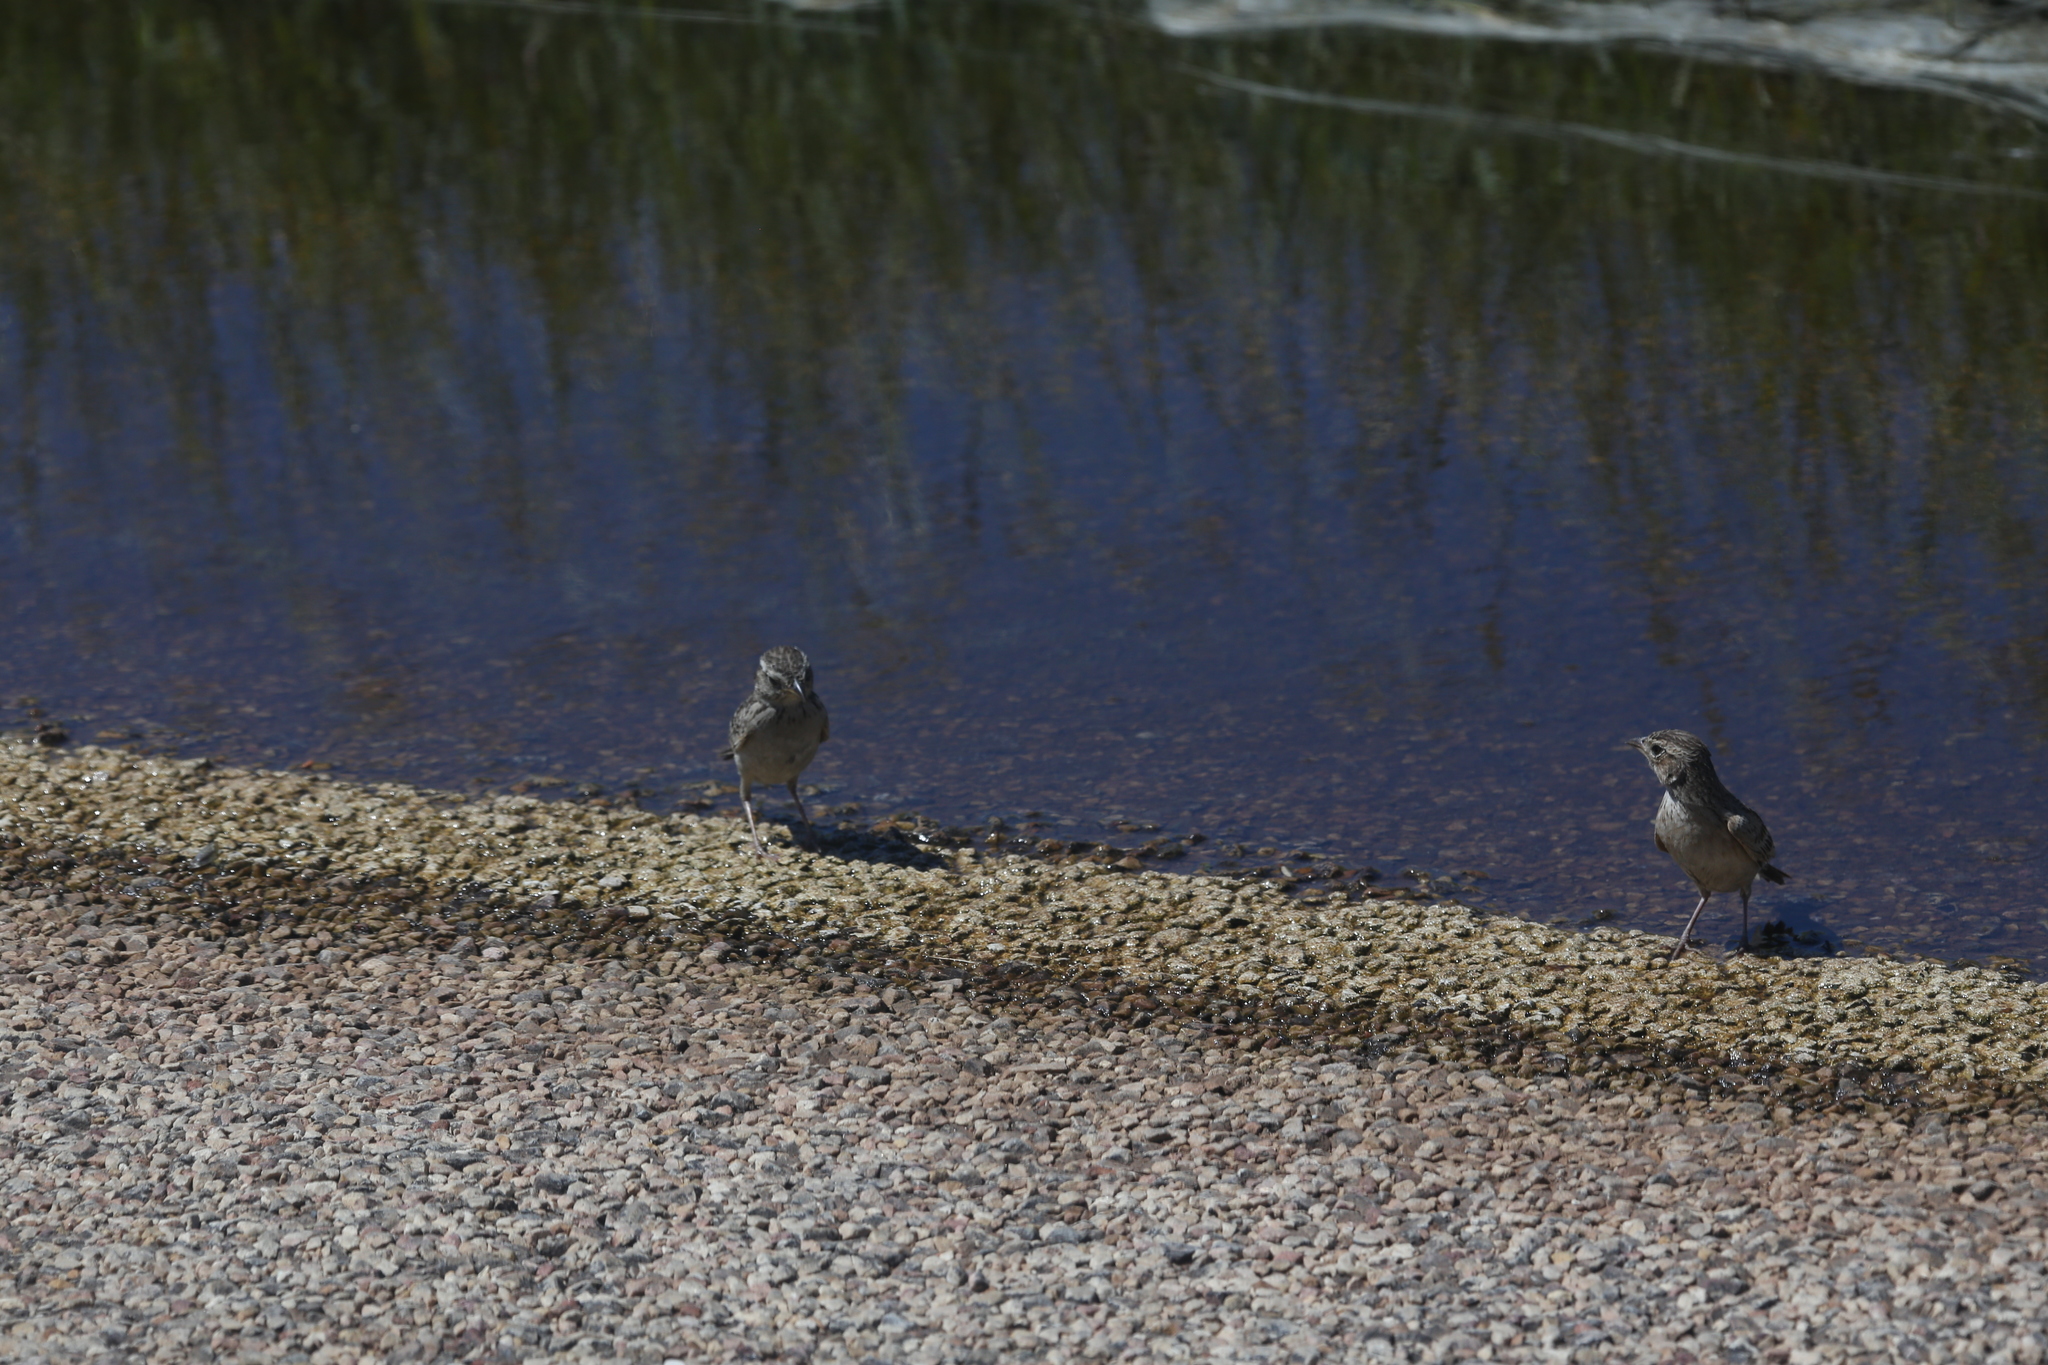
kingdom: Animalia
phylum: Chordata
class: Aves
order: Passeriformes
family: Alaudidae
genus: Mirafra
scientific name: Mirafra javanica
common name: Horsfield's bush lark
